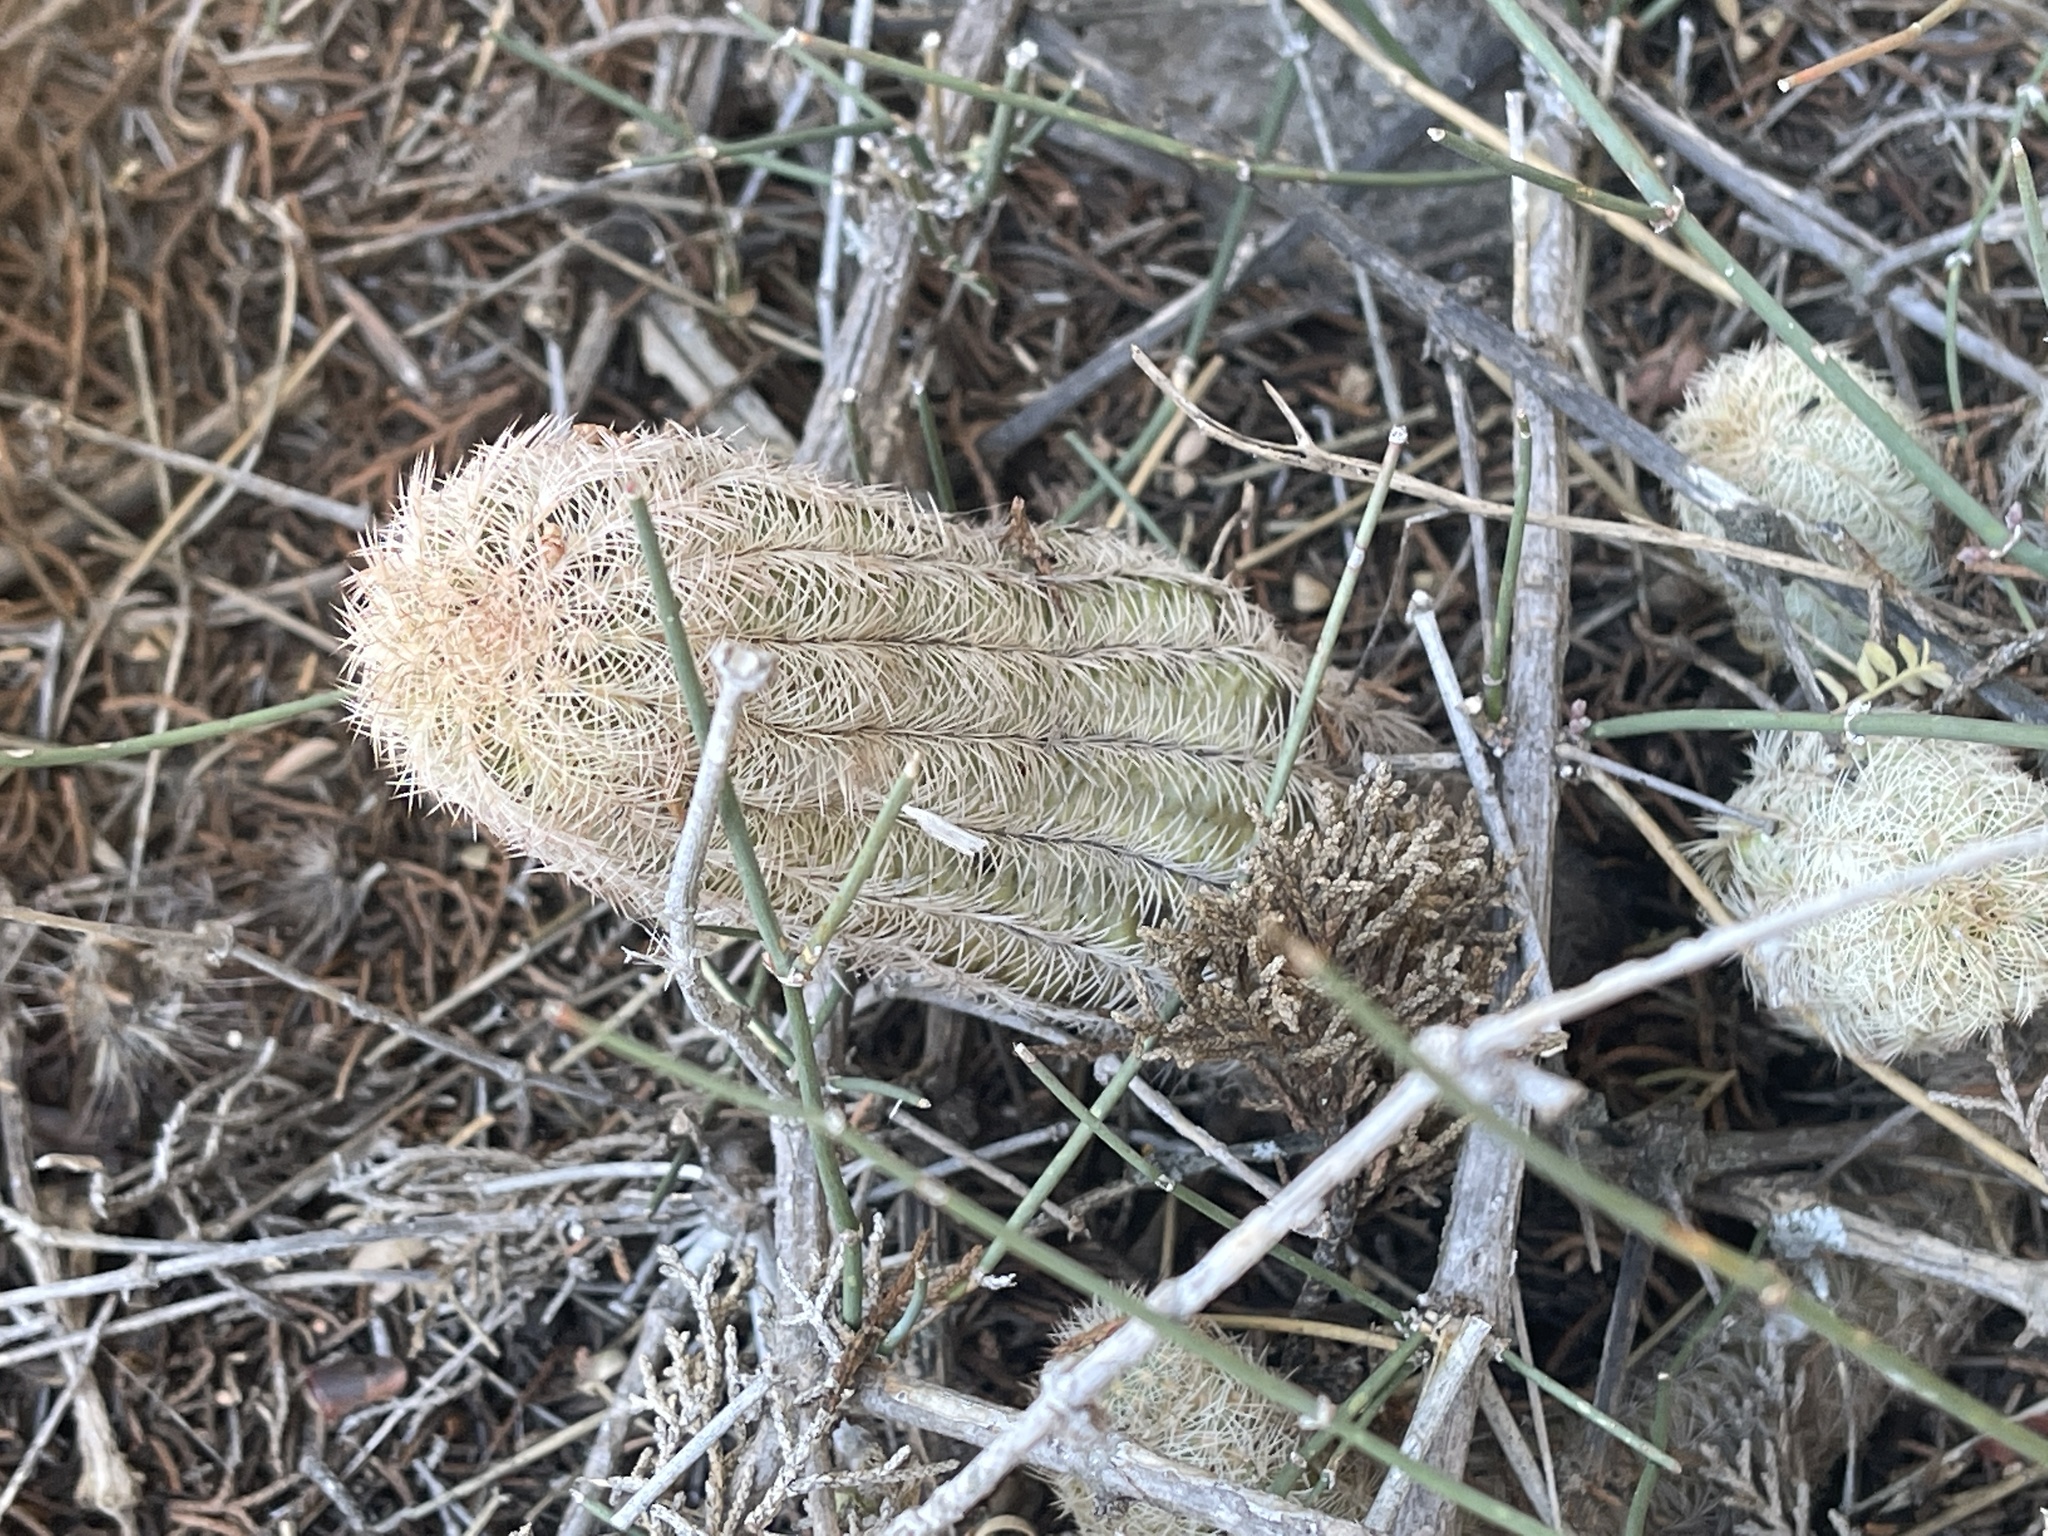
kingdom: Plantae
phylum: Tracheophyta
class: Magnoliopsida
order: Caryophyllales
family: Cactaceae
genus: Echinocereus
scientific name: Echinocereus reichenbachii
